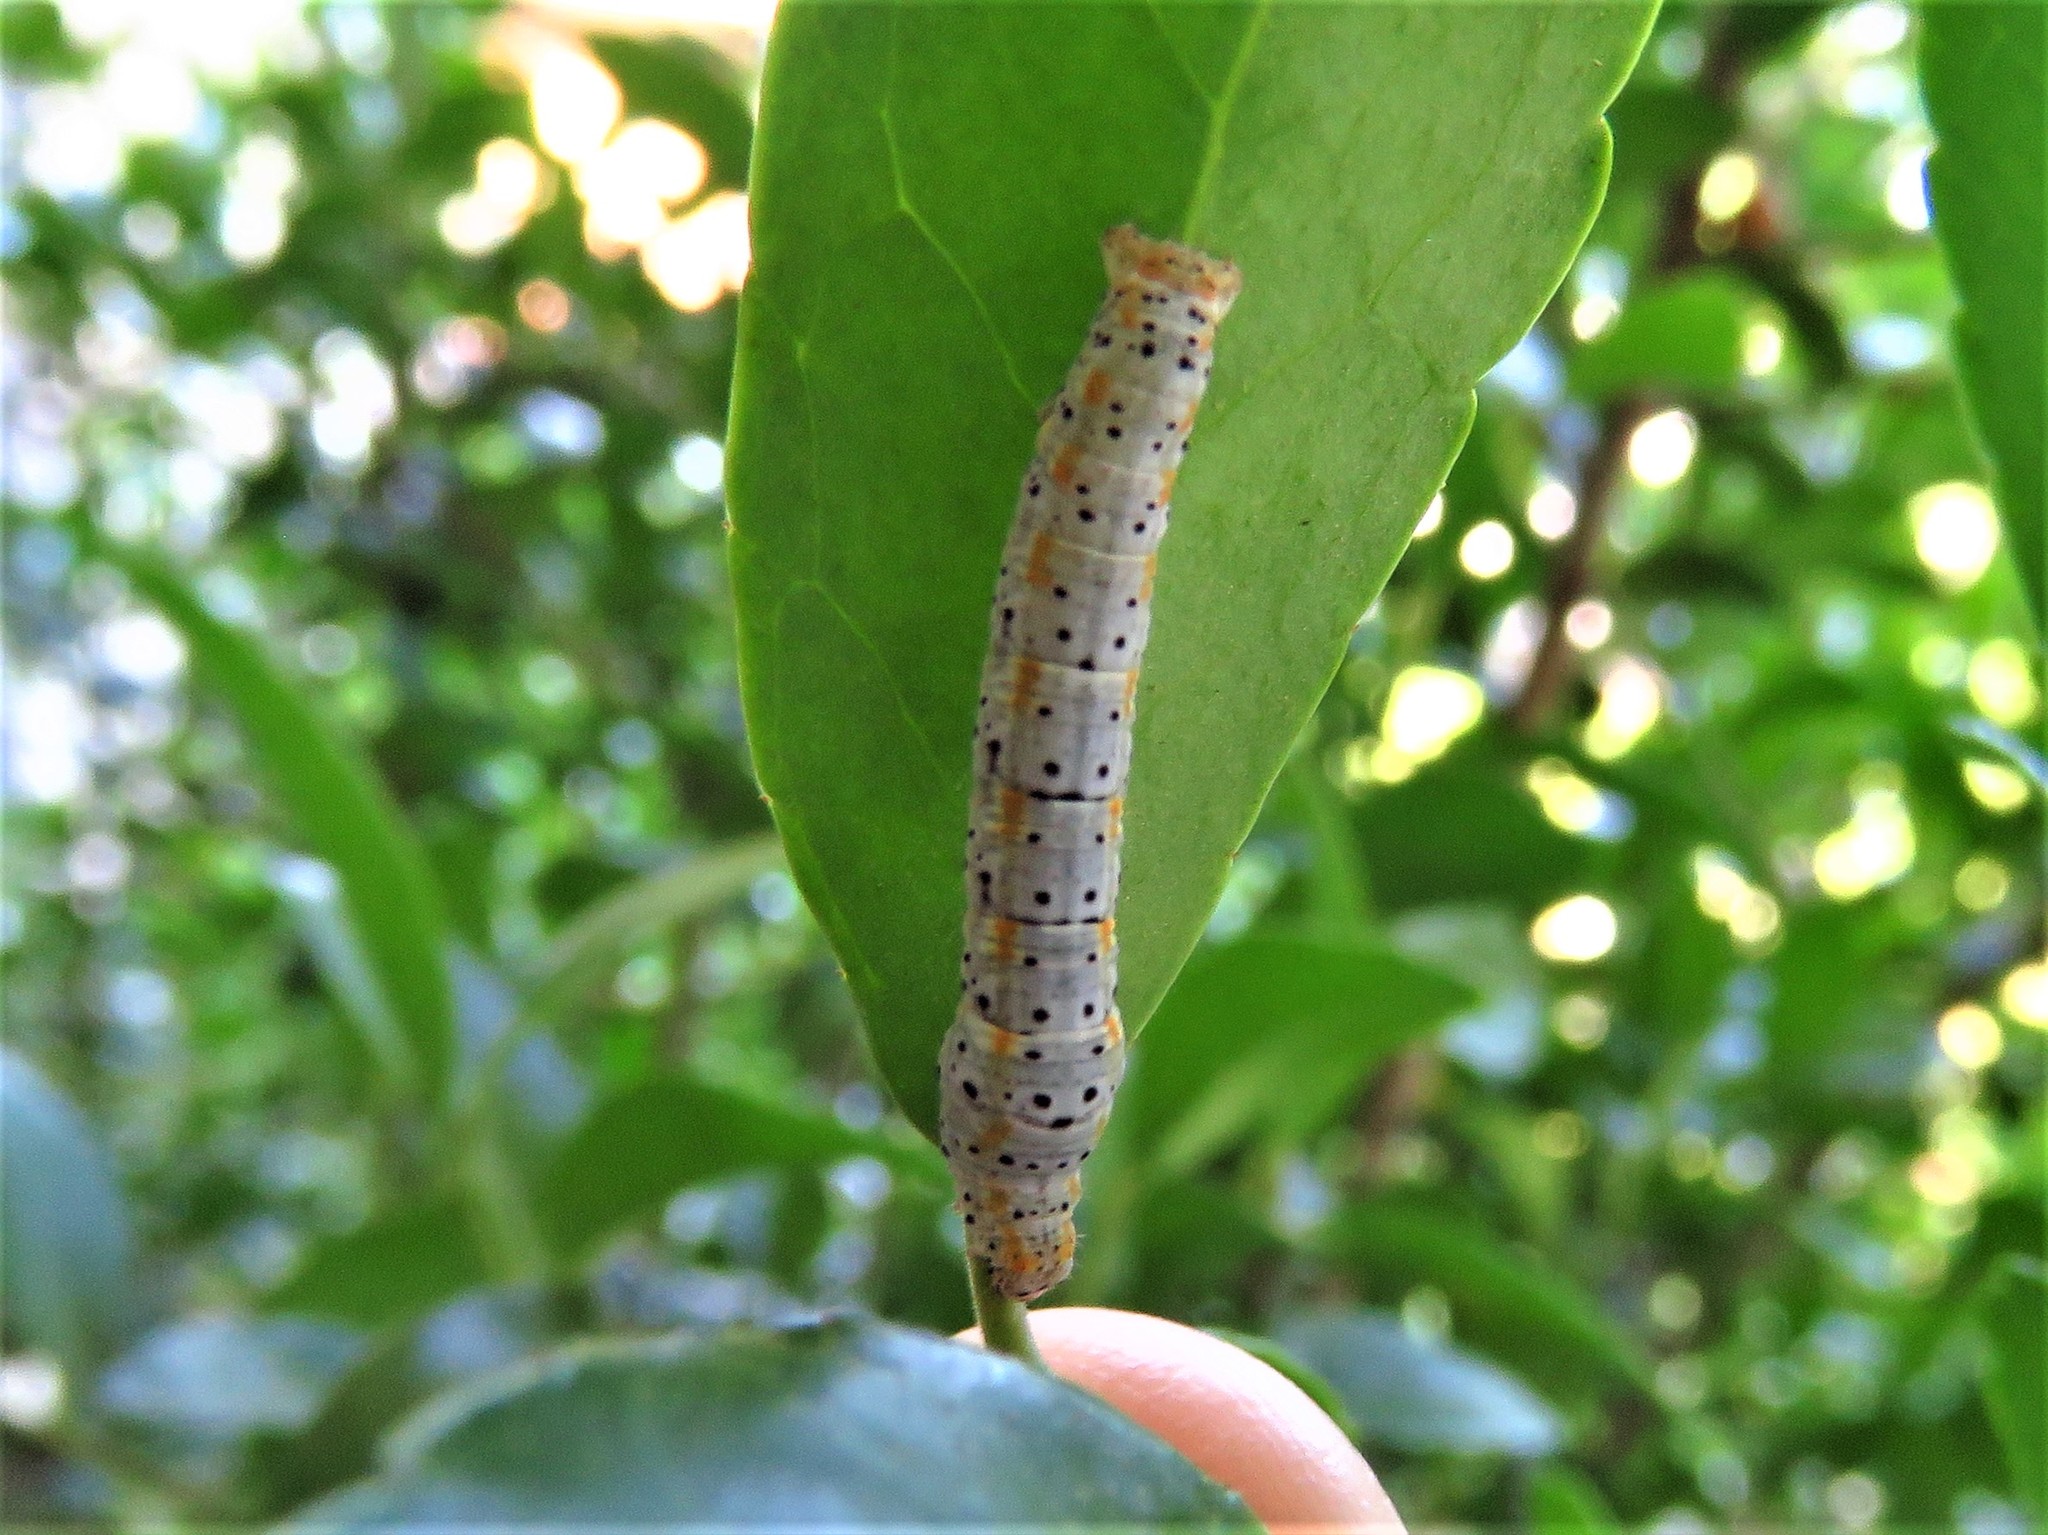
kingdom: Animalia
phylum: Arthropoda
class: Insecta
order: Lepidoptera
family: Geometridae
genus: Episemasia
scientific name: Episemasia cervinaria
